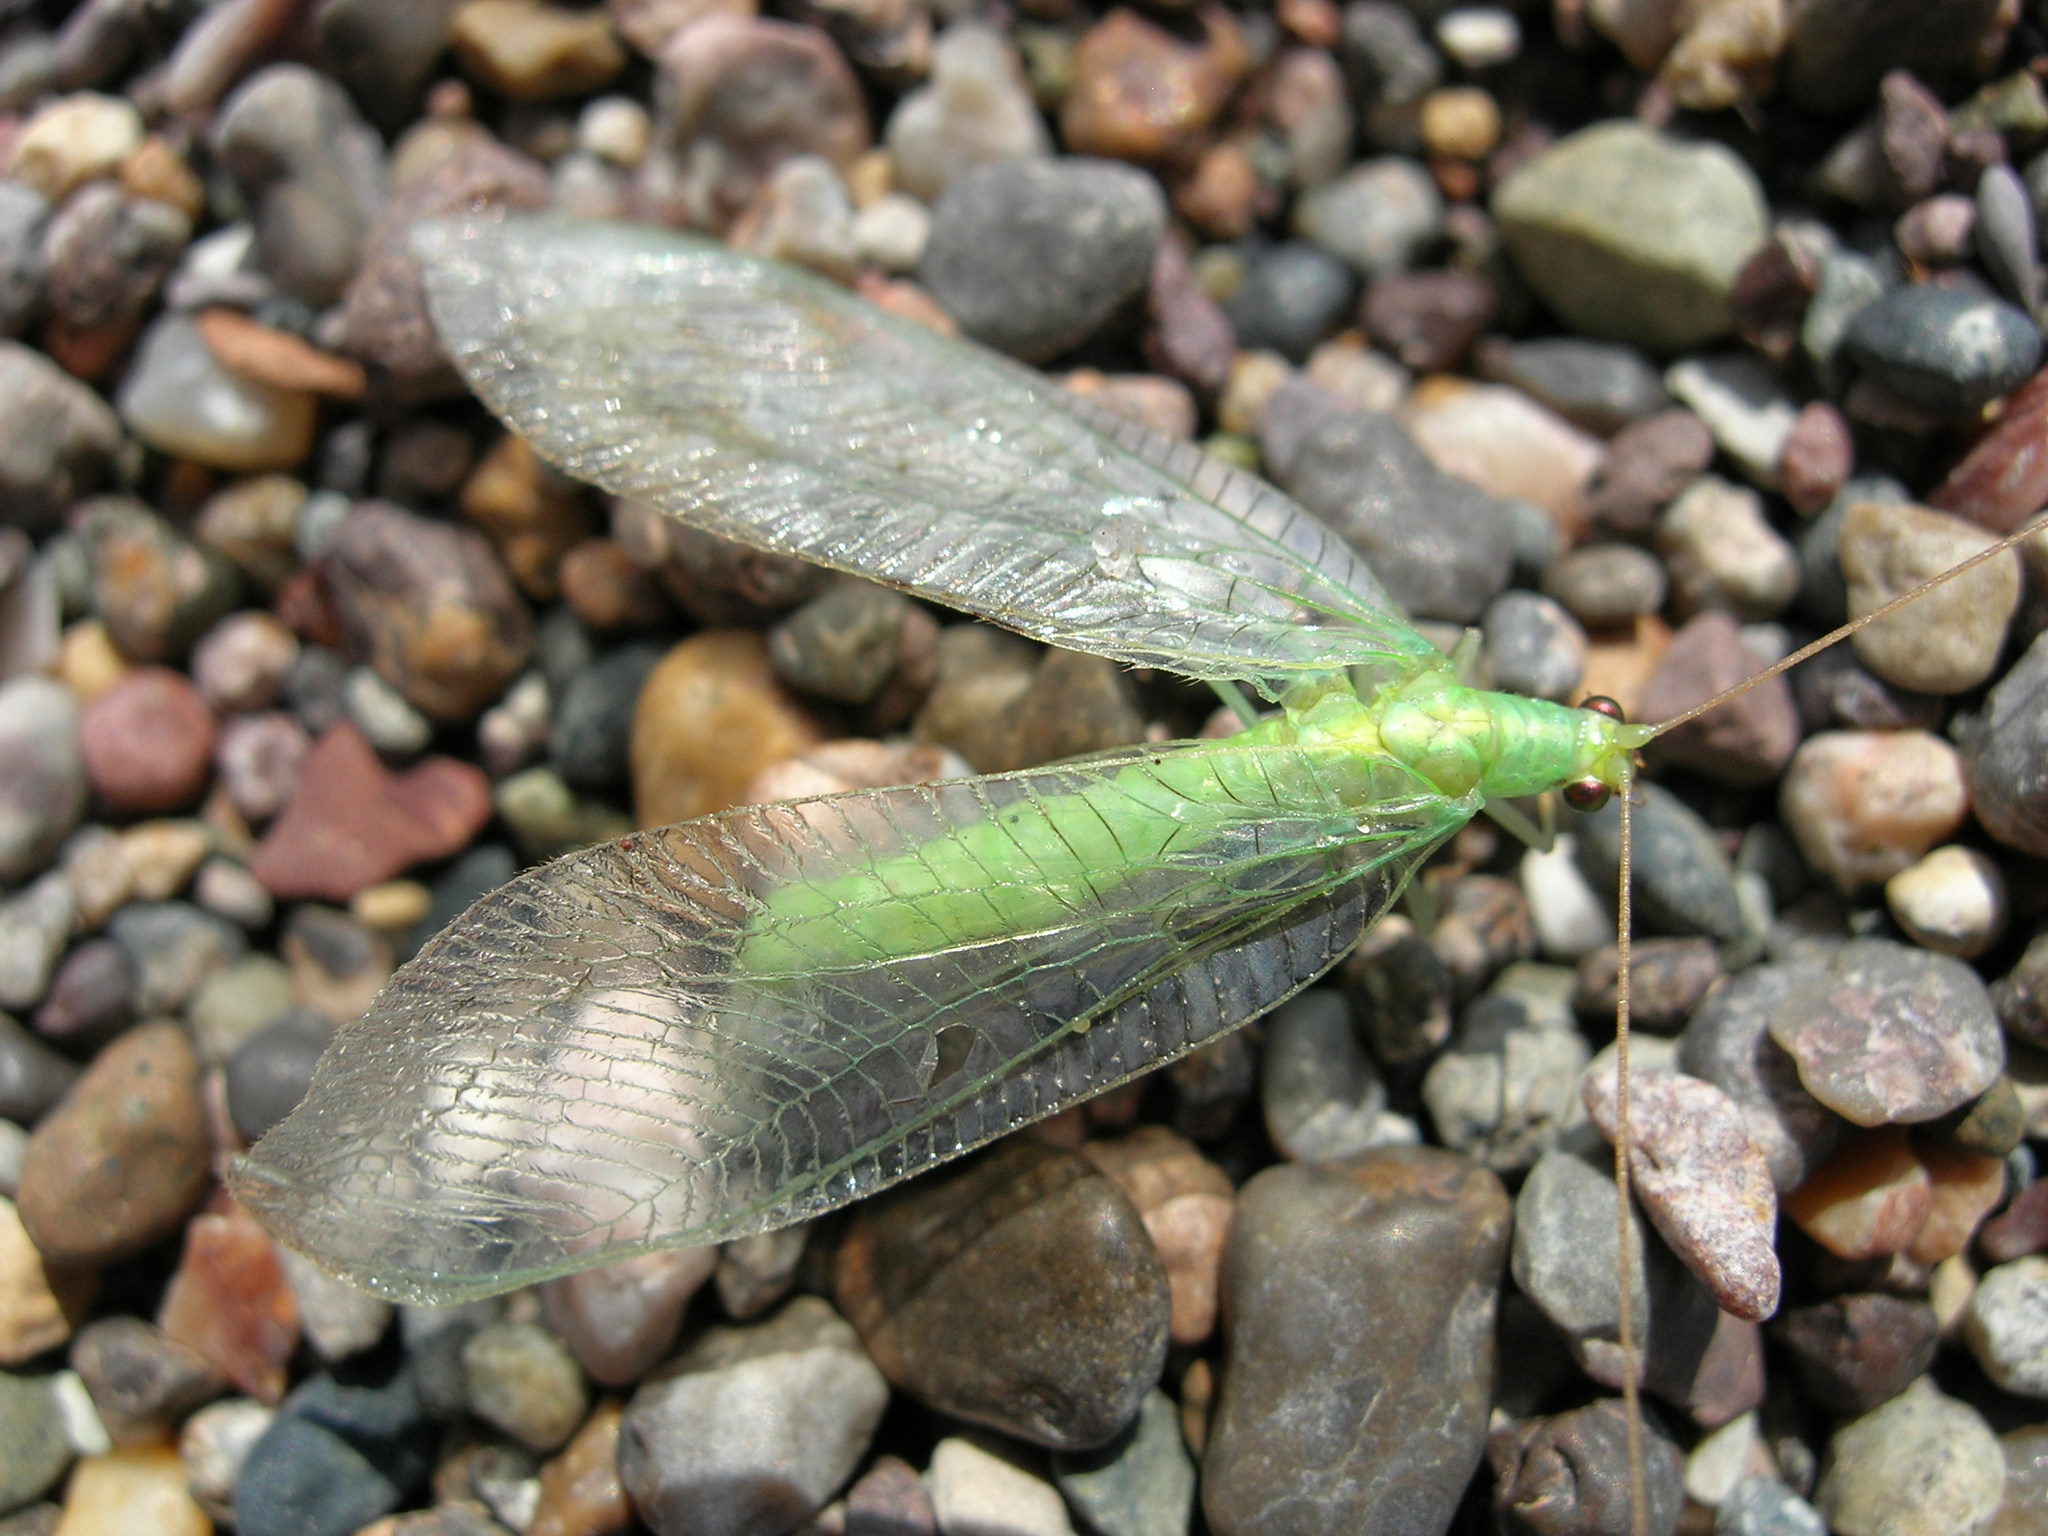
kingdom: Animalia
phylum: Arthropoda
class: Insecta
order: Neuroptera
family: Chrysopidae
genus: Chrysoperla
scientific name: Chrysoperla
